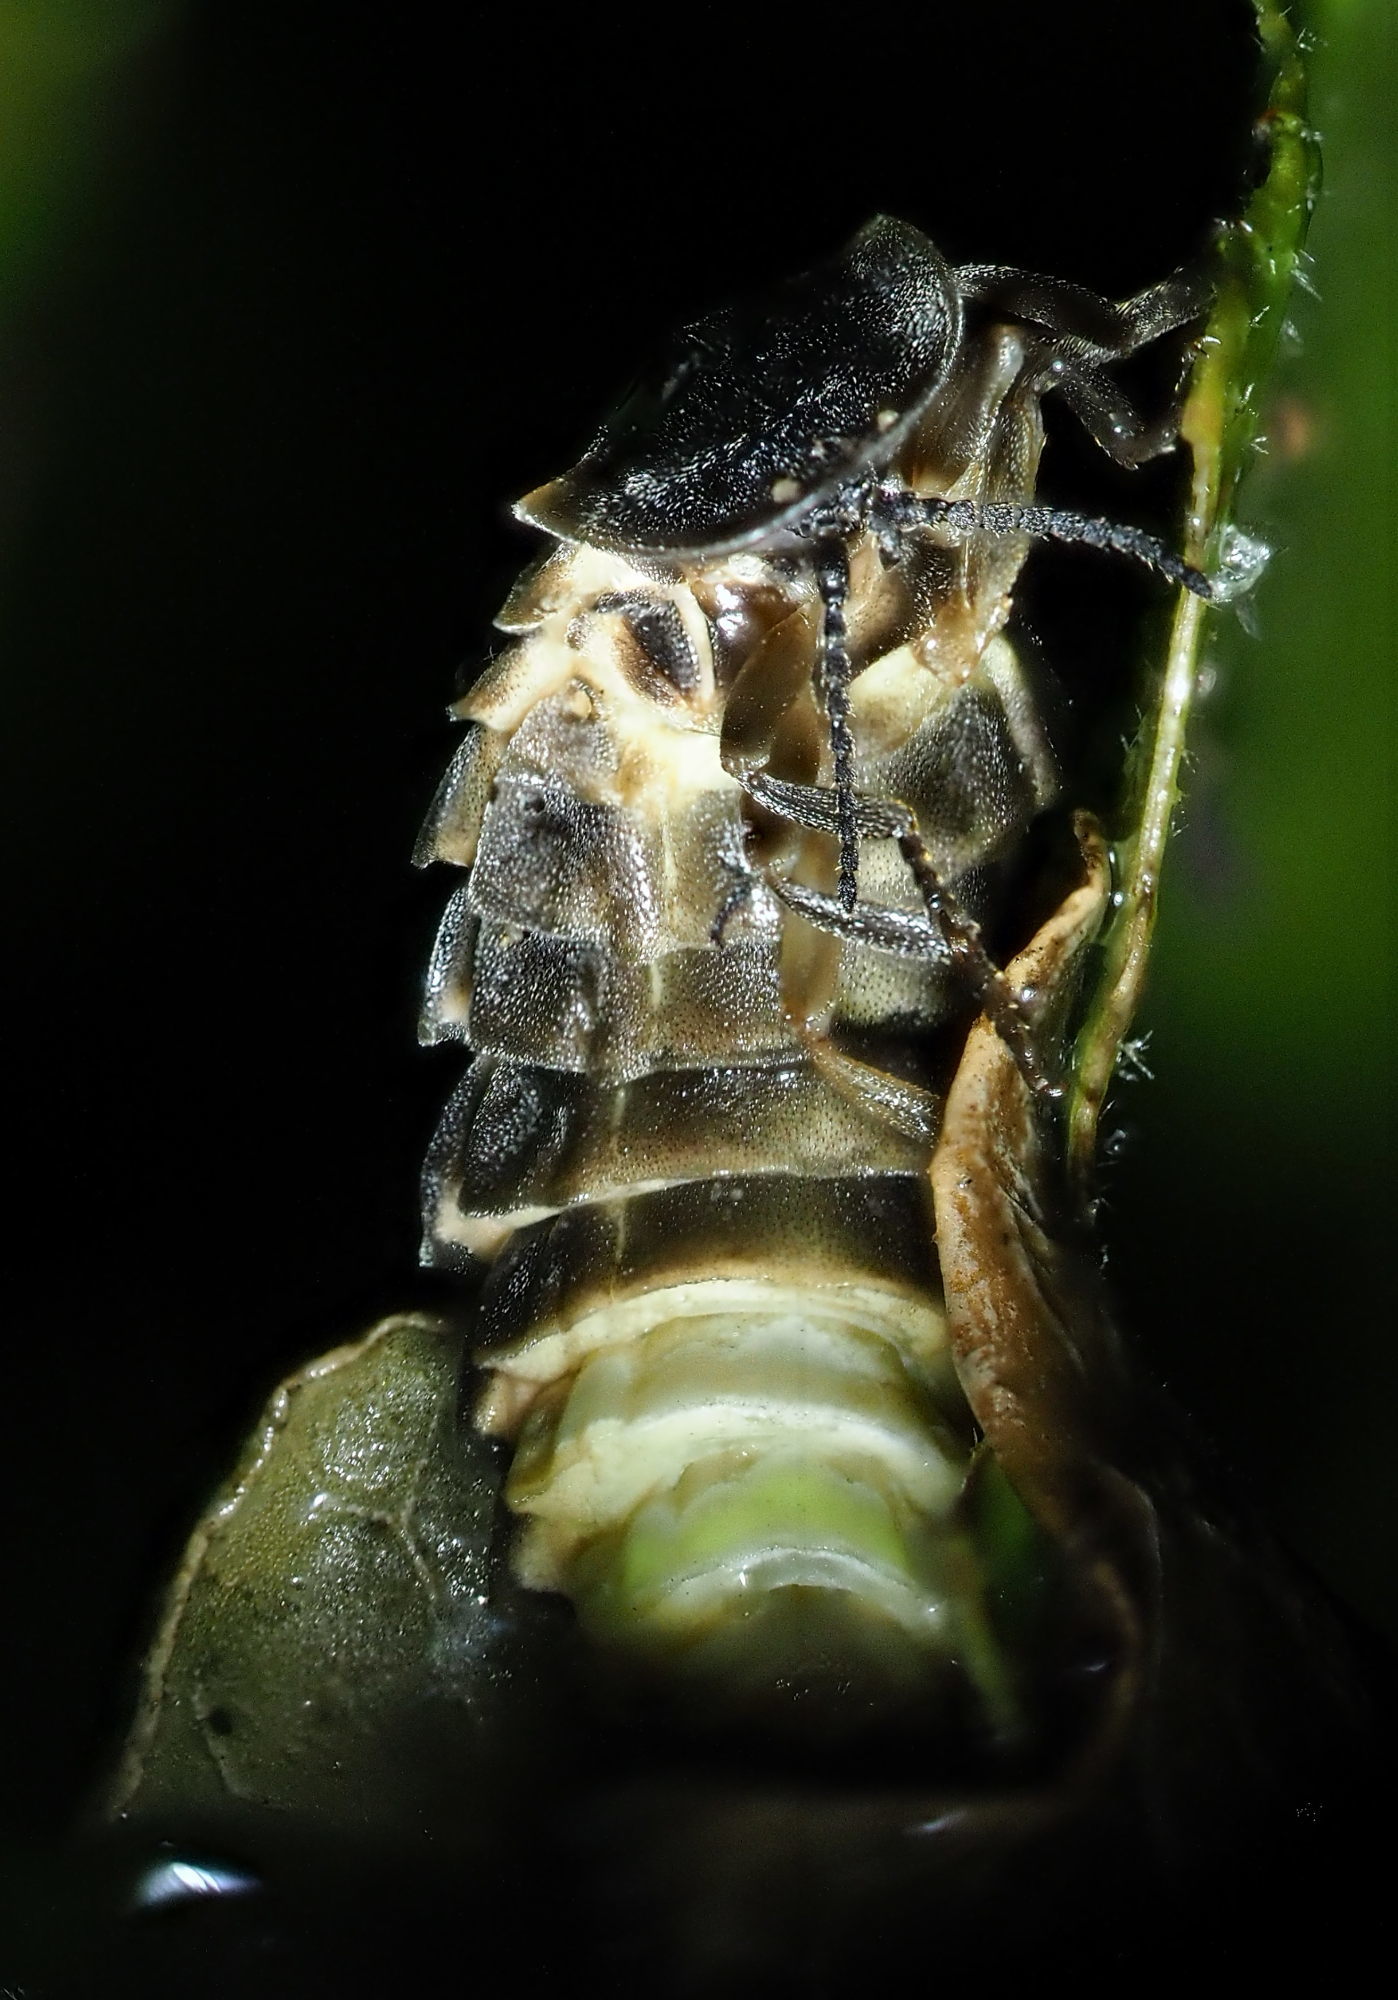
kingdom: Animalia
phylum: Arthropoda
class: Insecta
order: Coleoptera
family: Lampyridae
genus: Lampyris
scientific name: Lampyris noctiluca
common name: Glow-worm
